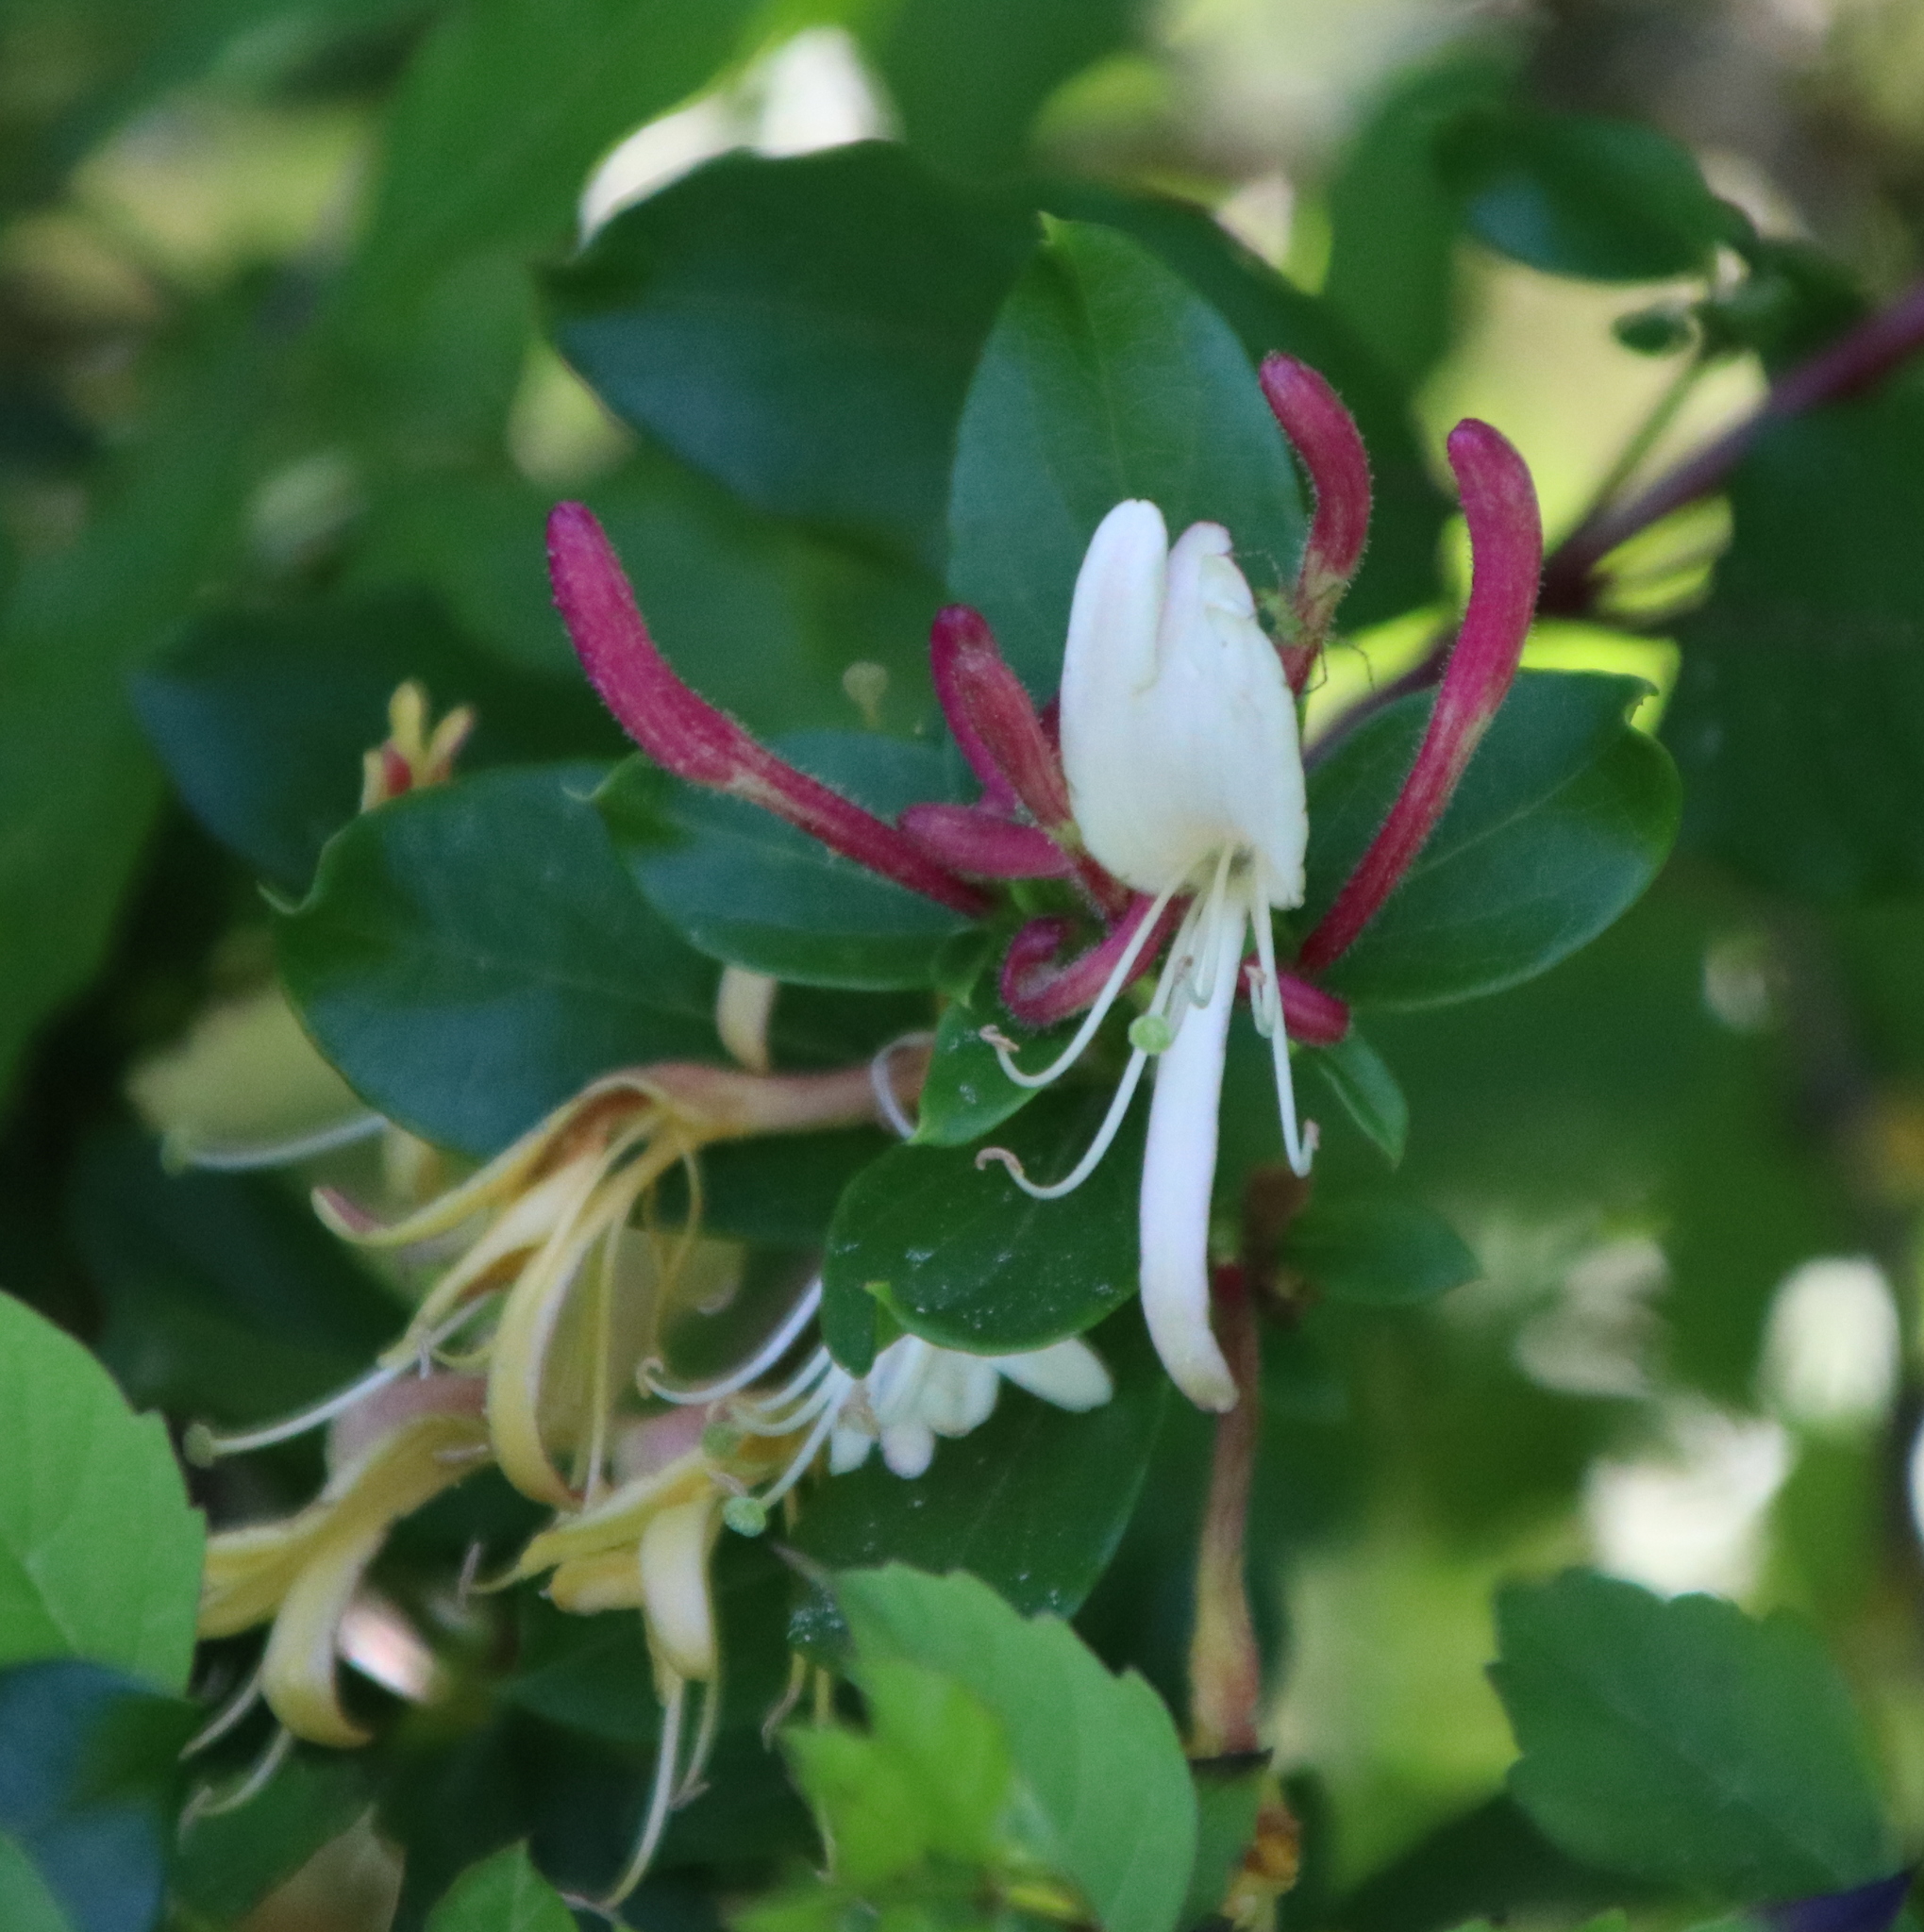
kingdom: Plantae
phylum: Tracheophyta
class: Magnoliopsida
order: Dipsacales
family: Caprifoliaceae
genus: Lonicera
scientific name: Lonicera japonica
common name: Japanese honeysuckle
